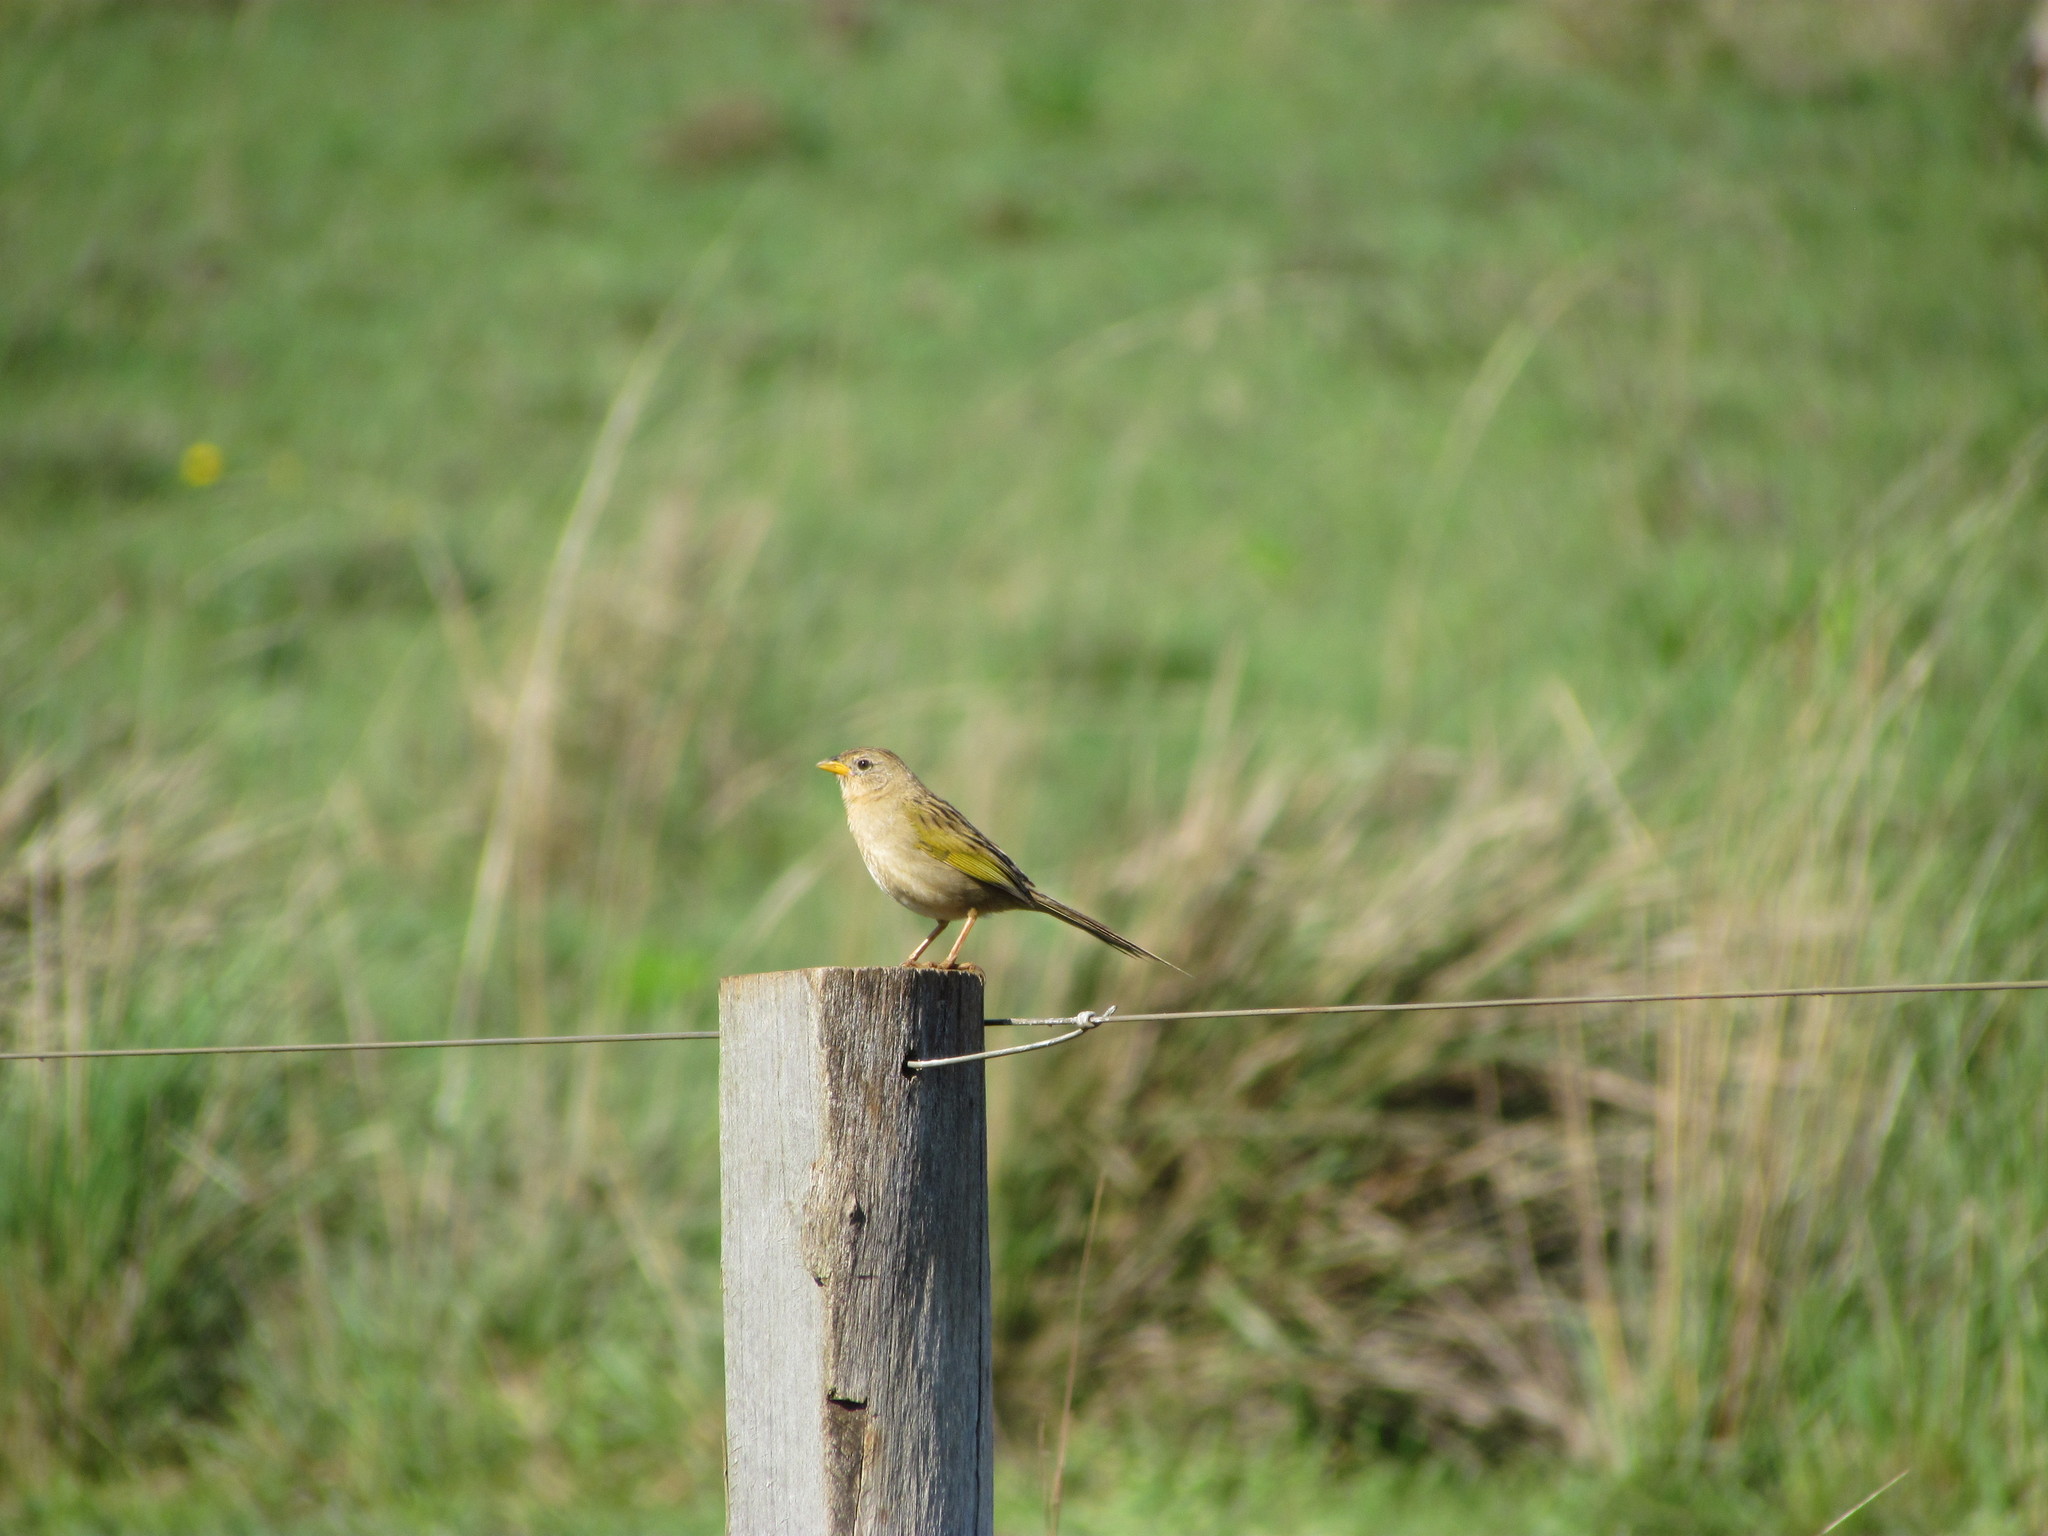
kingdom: Animalia
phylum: Chordata
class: Aves
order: Passeriformes
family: Thraupidae
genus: Emberizoides
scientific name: Emberizoides herbicola
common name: Wedge-tailed grass-finch
